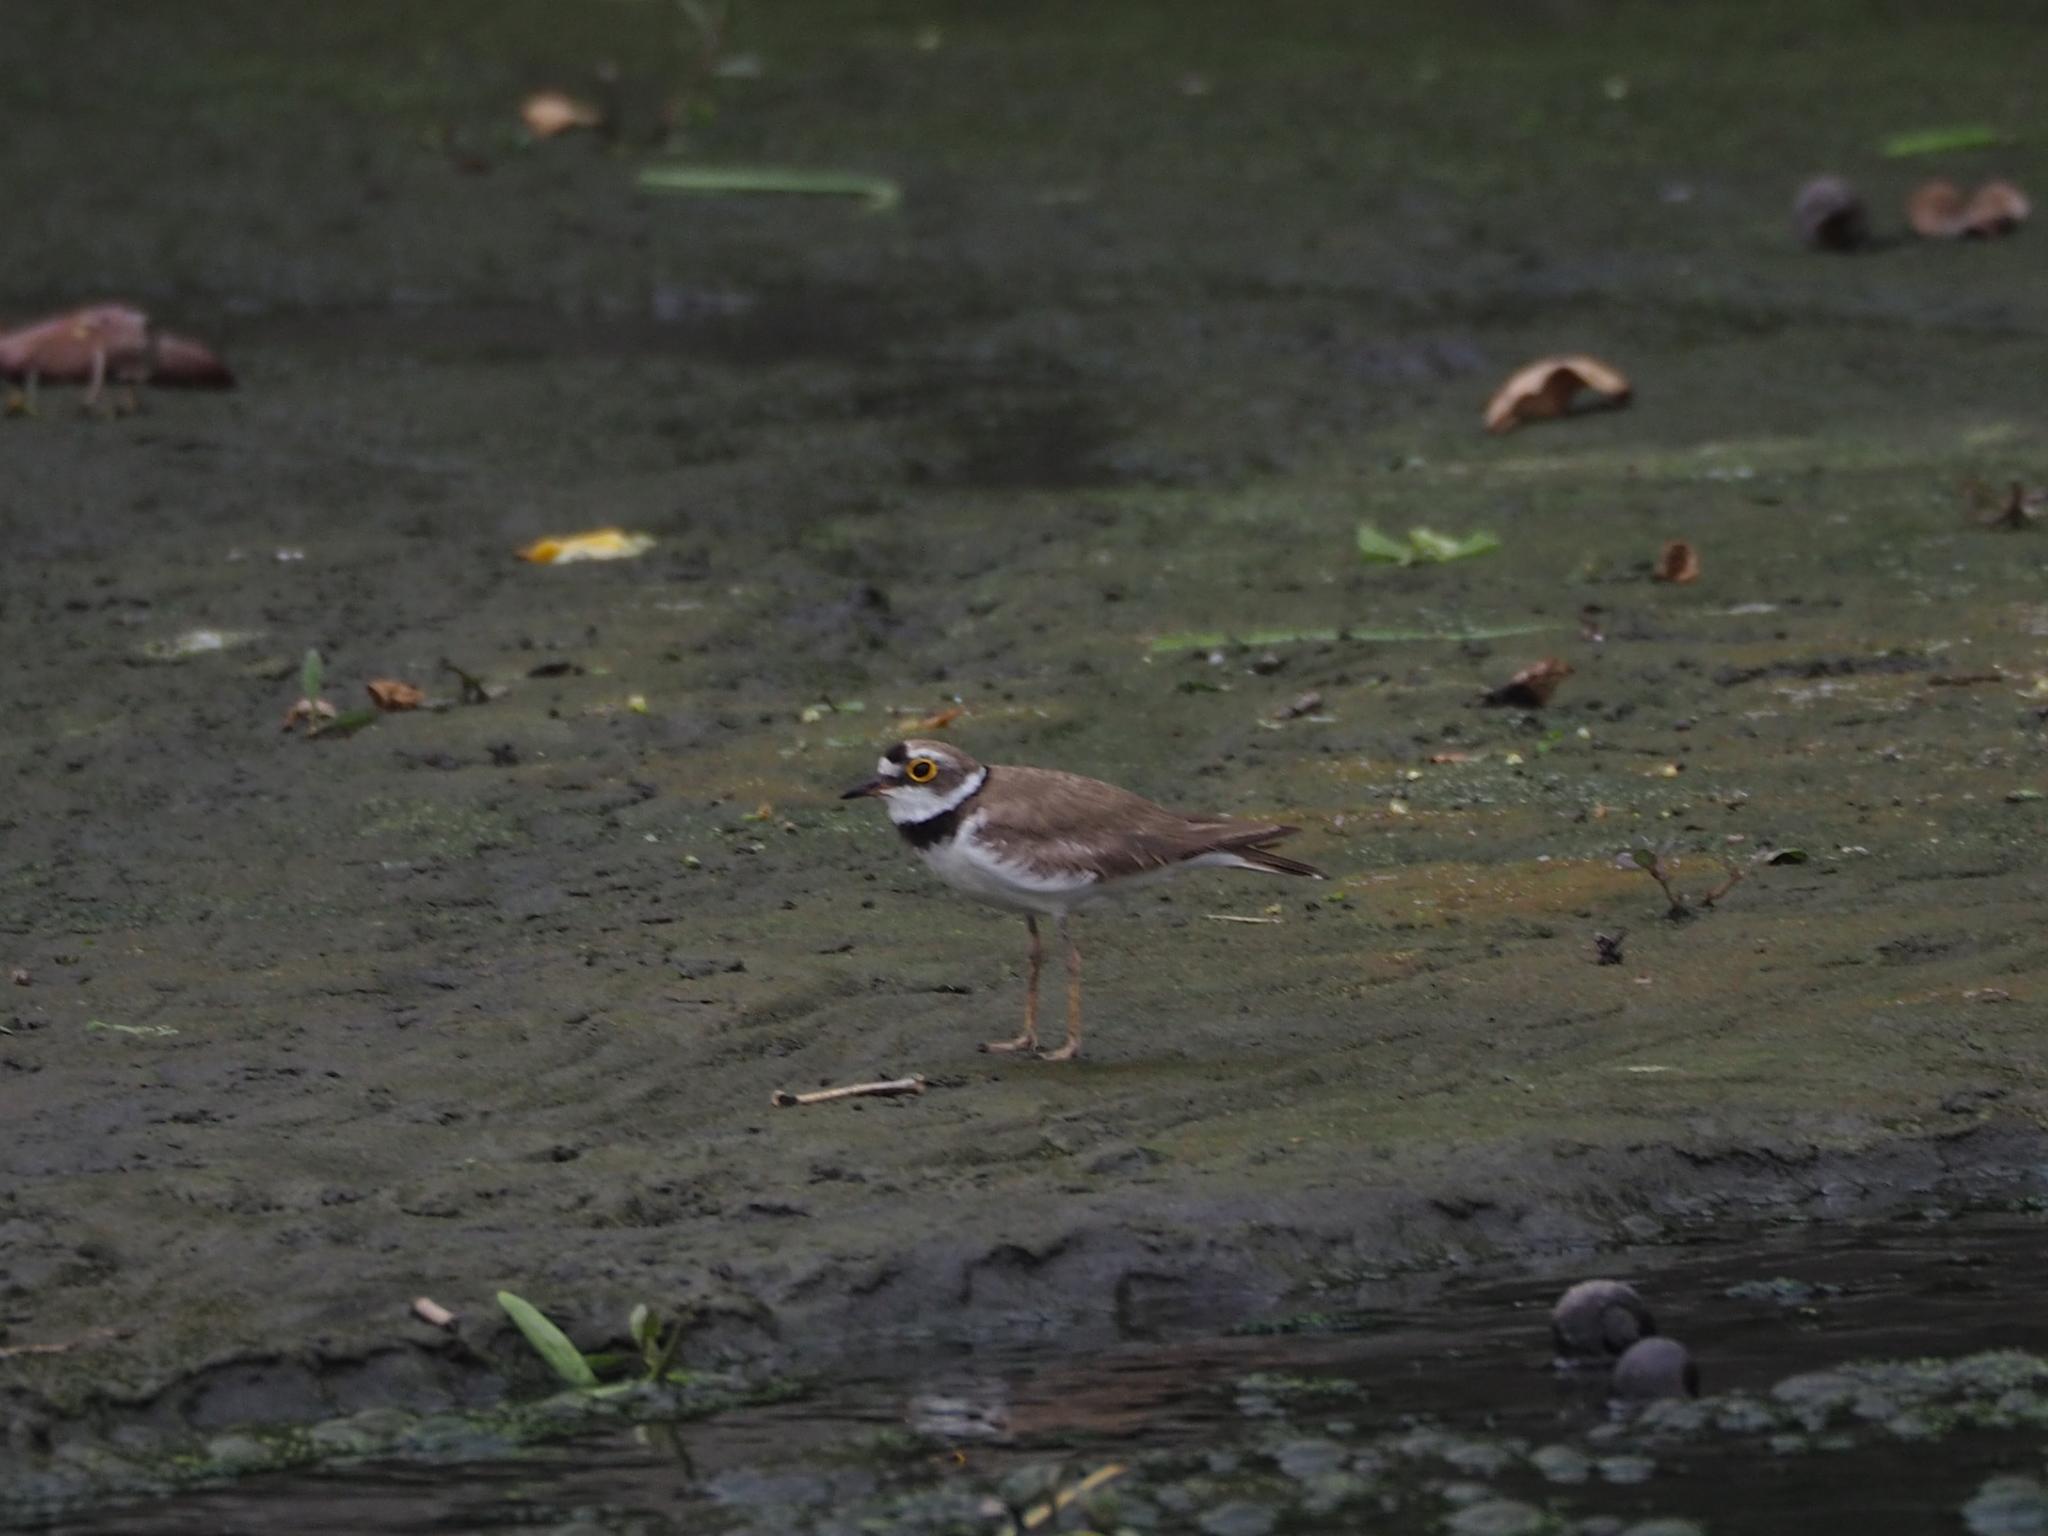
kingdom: Animalia
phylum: Chordata
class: Aves
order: Charadriiformes
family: Charadriidae
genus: Charadrius
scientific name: Charadrius dubius
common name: Little ringed plover
